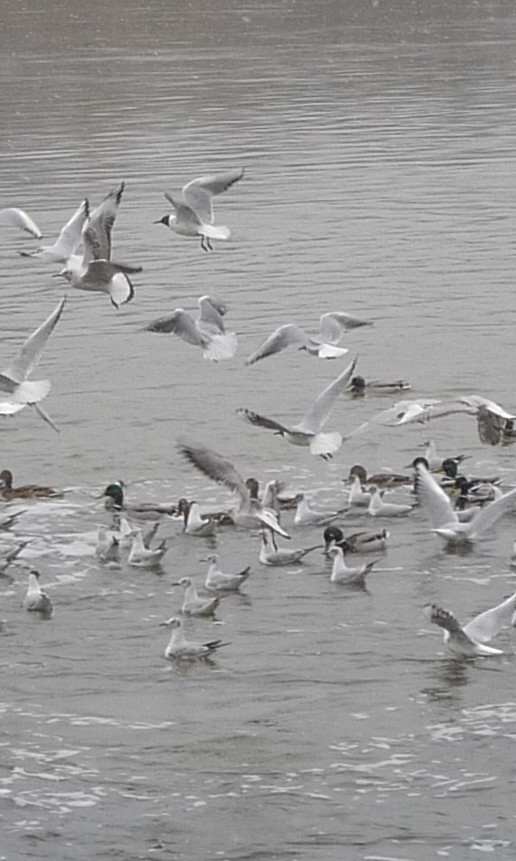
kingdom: Animalia
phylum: Chordata
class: Aves
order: Charadriiformes
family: Laridae
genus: Chroicocephalus
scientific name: Chroicocephalus ridibundus
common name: Black-headed gull
